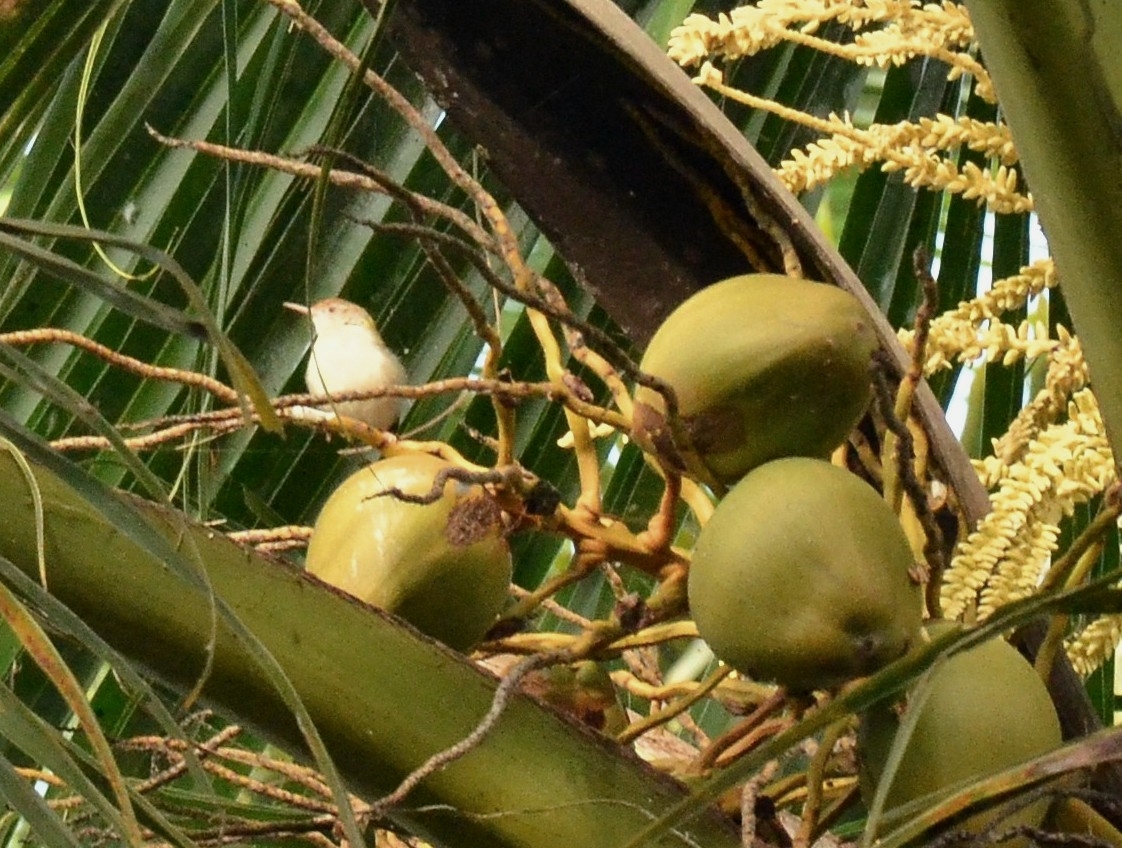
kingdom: Animalia
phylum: Chordata
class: Aves
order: Passeriformes
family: Cisticolidae
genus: Orthotomus
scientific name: Orthotomus sutorius
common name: Common tailorbird
